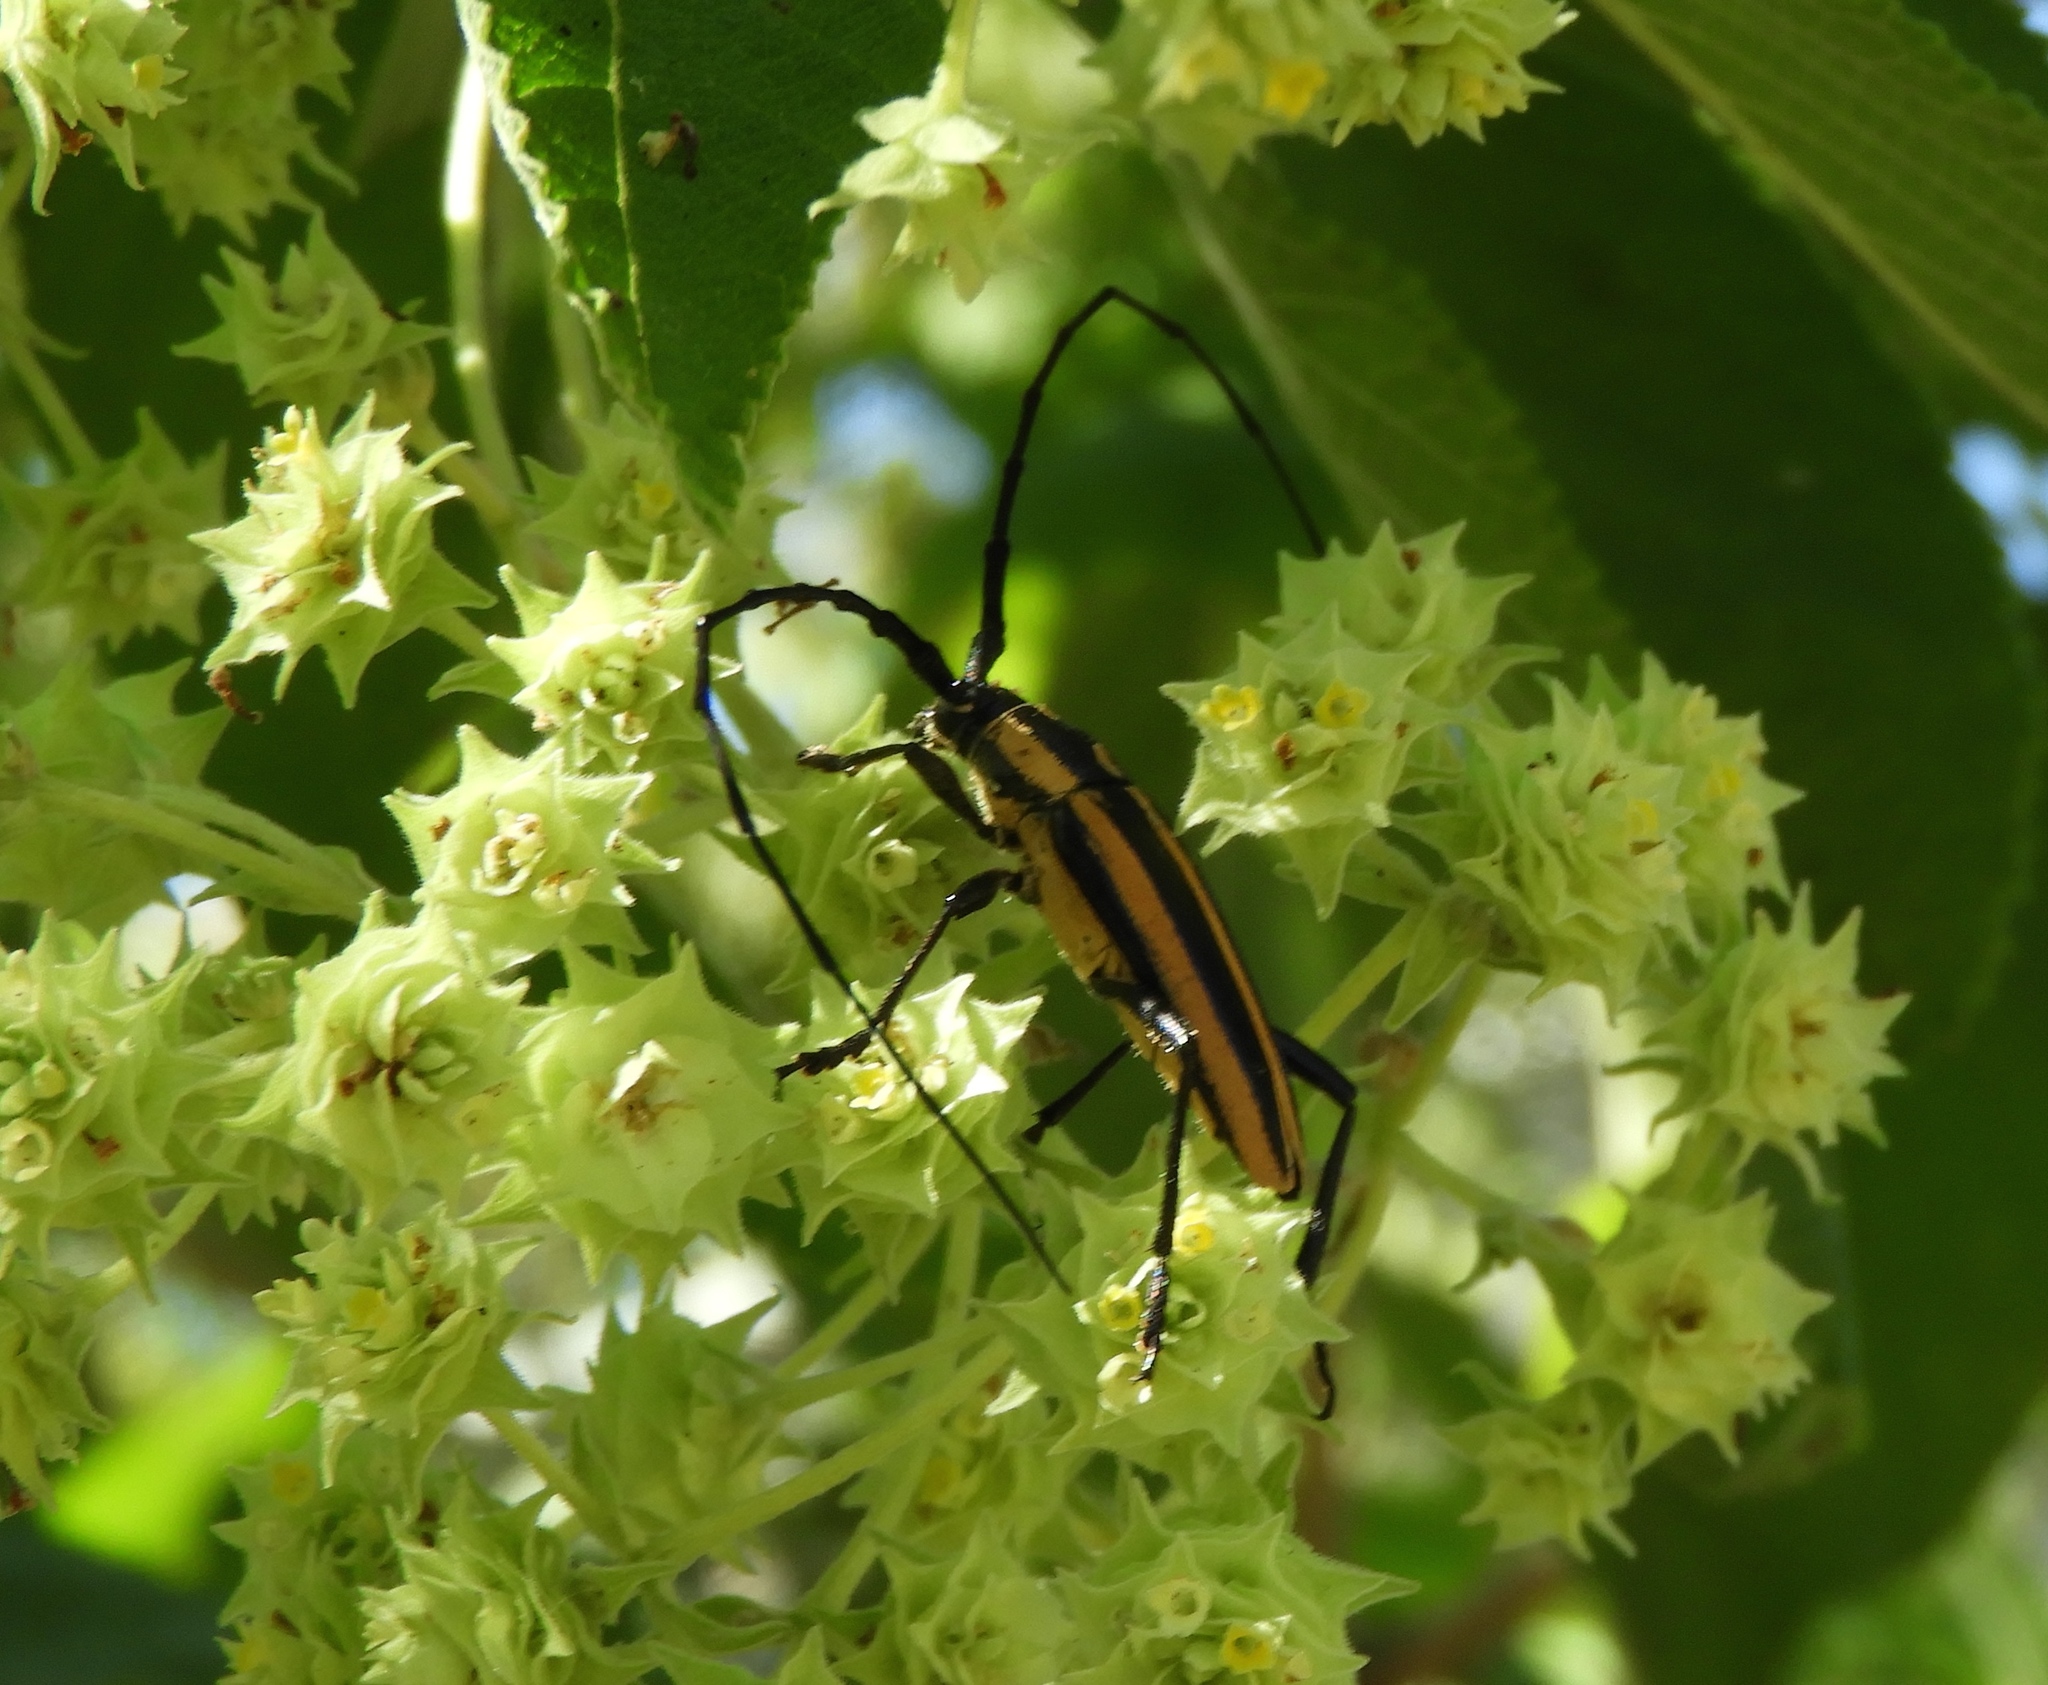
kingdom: Animalia
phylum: Arthropoda
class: Insecta
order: Coleoptera
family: Cerambycidae
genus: Sphaenothecus
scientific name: Sphaenothecus trilineatus
